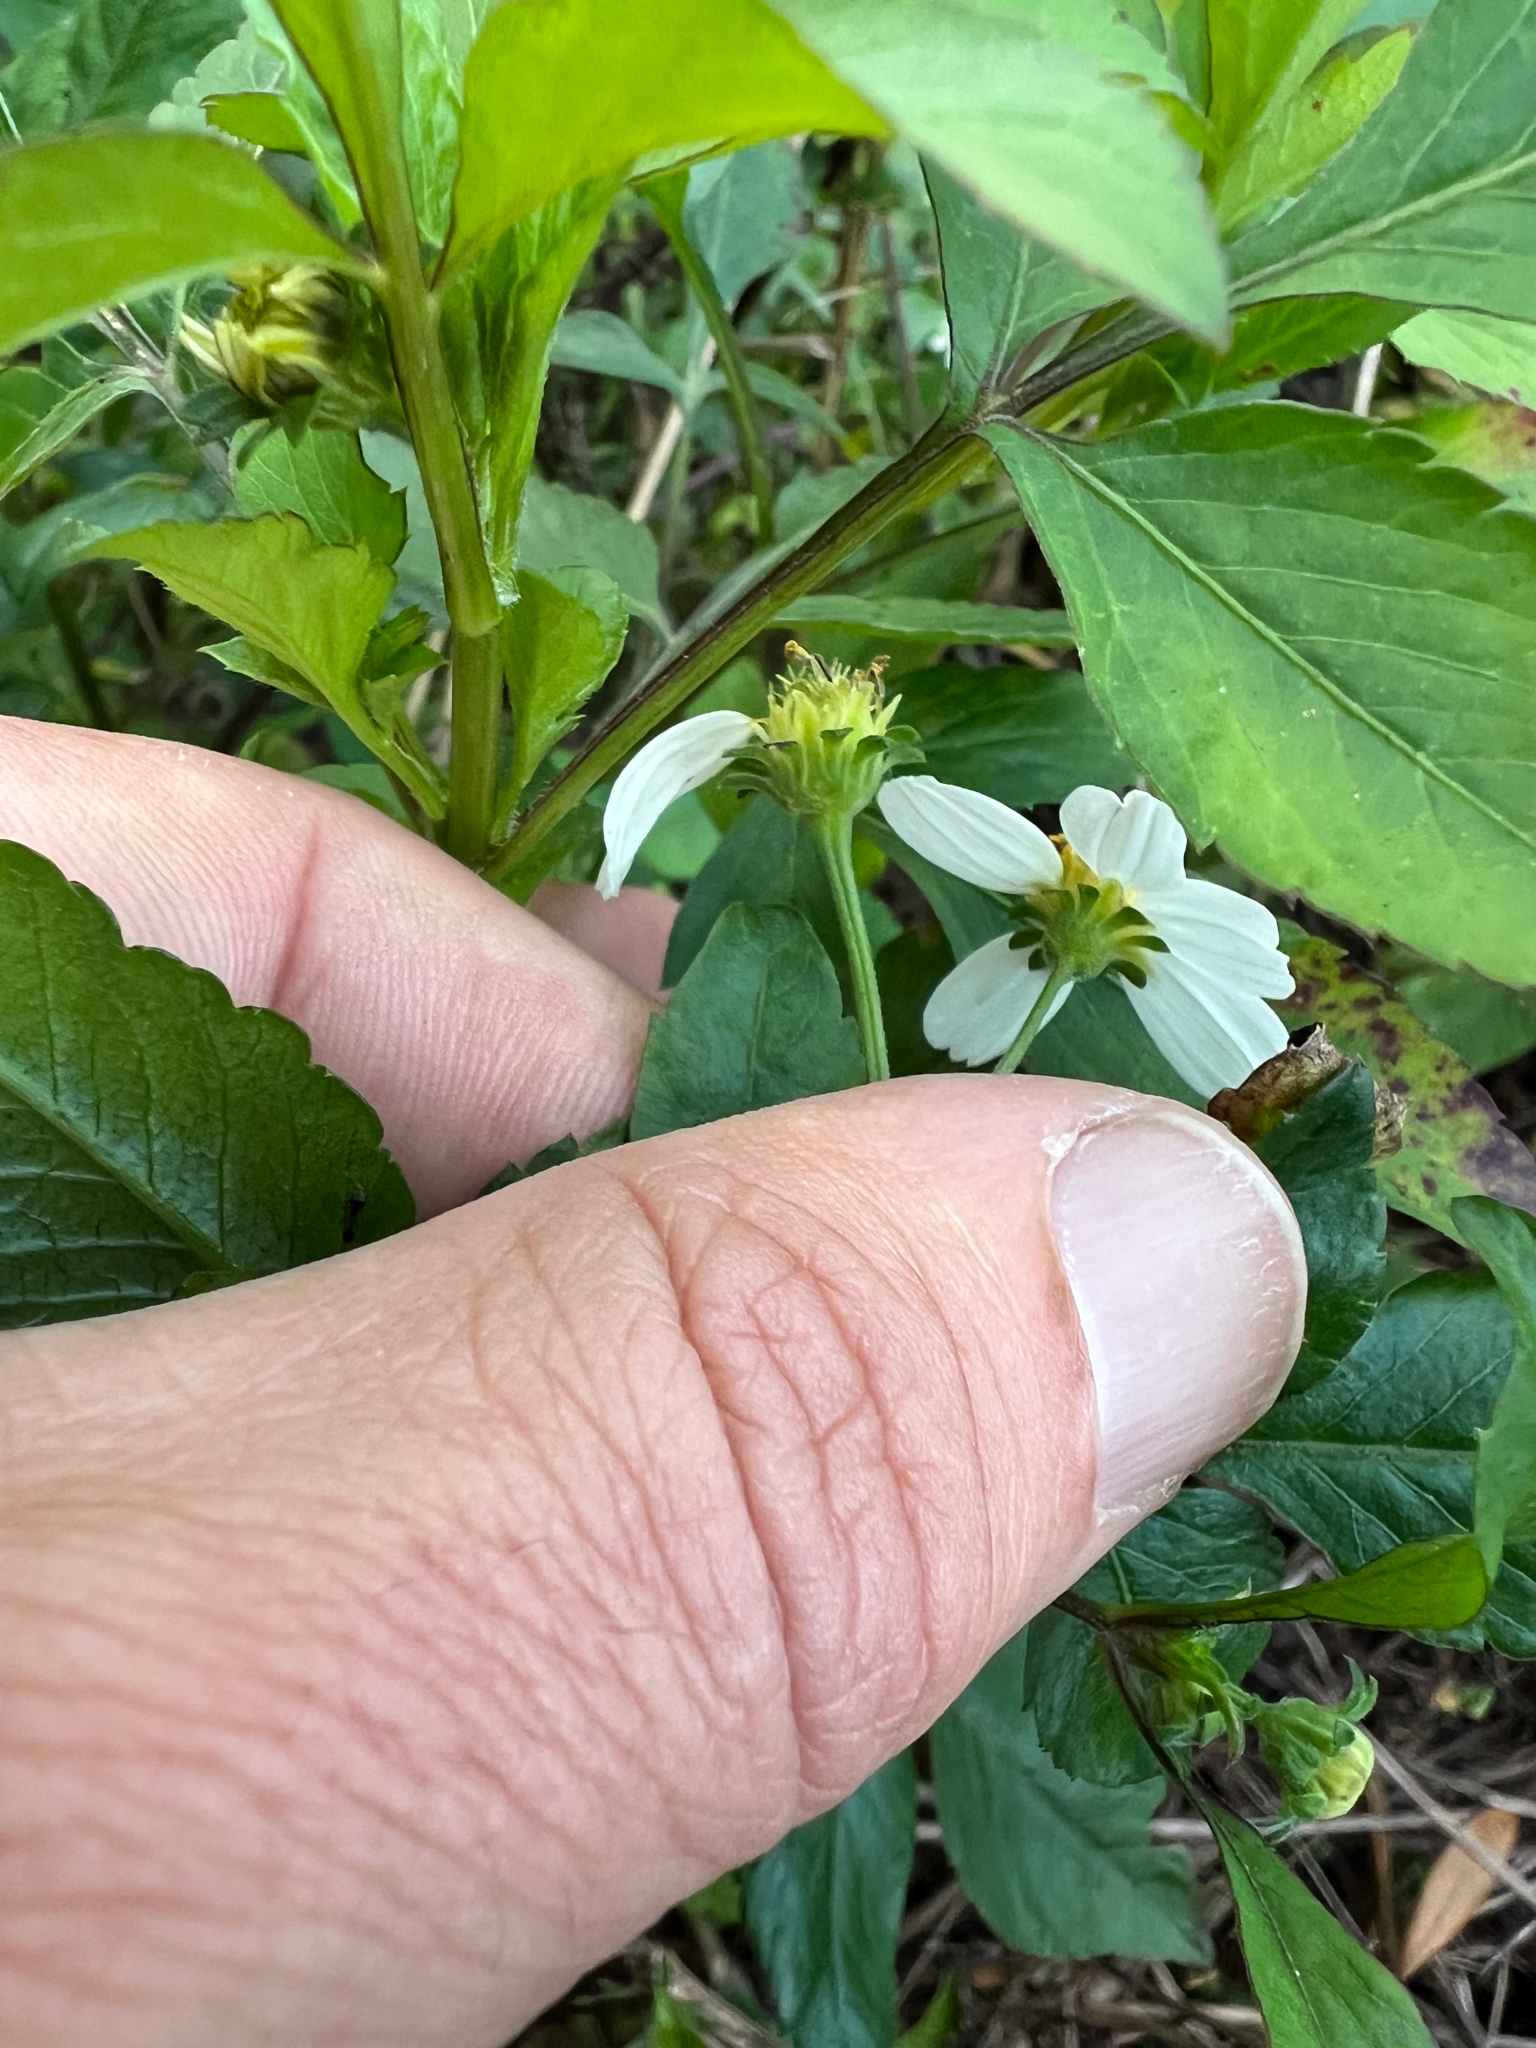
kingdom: Plantae
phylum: Tracheophyta
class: Magnoliopsida
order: Asterales
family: Asteraceae
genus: Bidens
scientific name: Bidens alba
